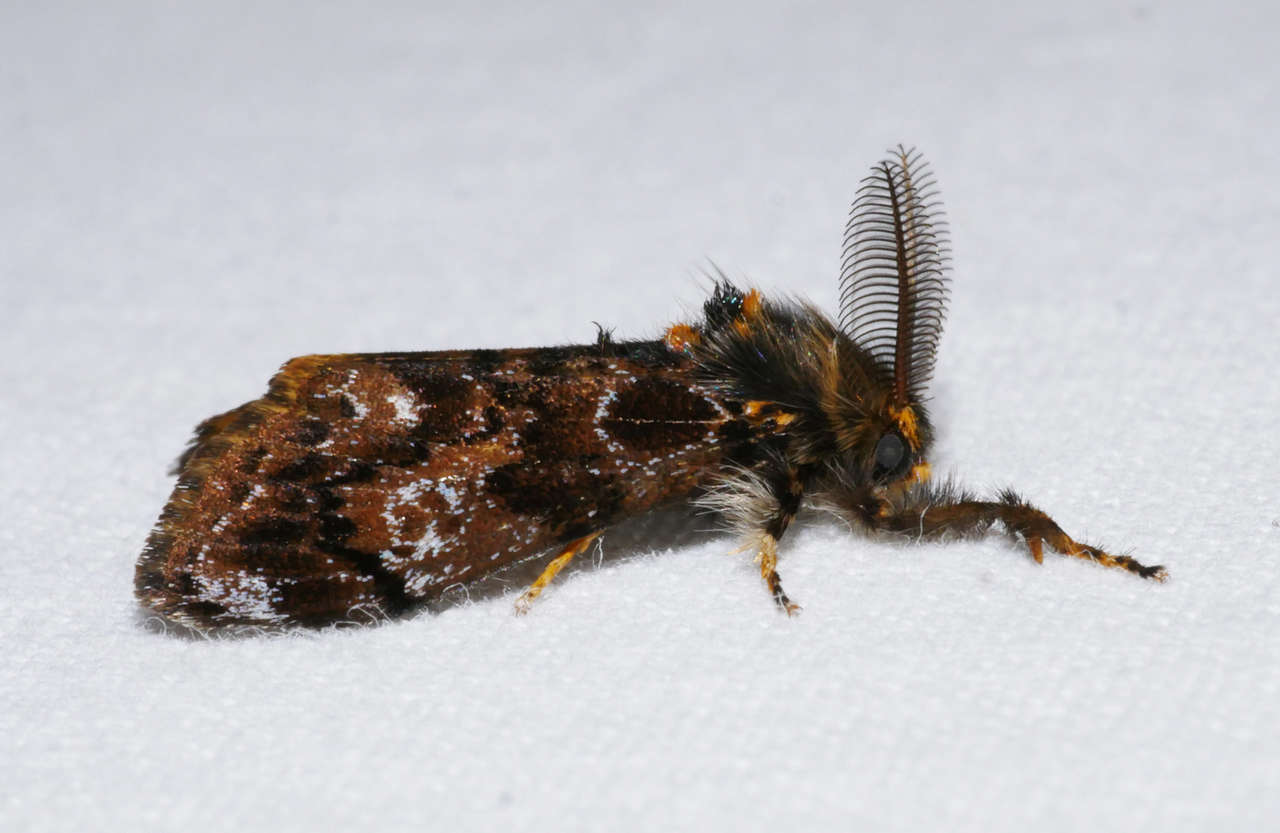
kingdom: Animalia
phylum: Arthropoda
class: Insecta
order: Lepidoptera
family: Erebidae
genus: Orgyia
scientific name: Orgyia
